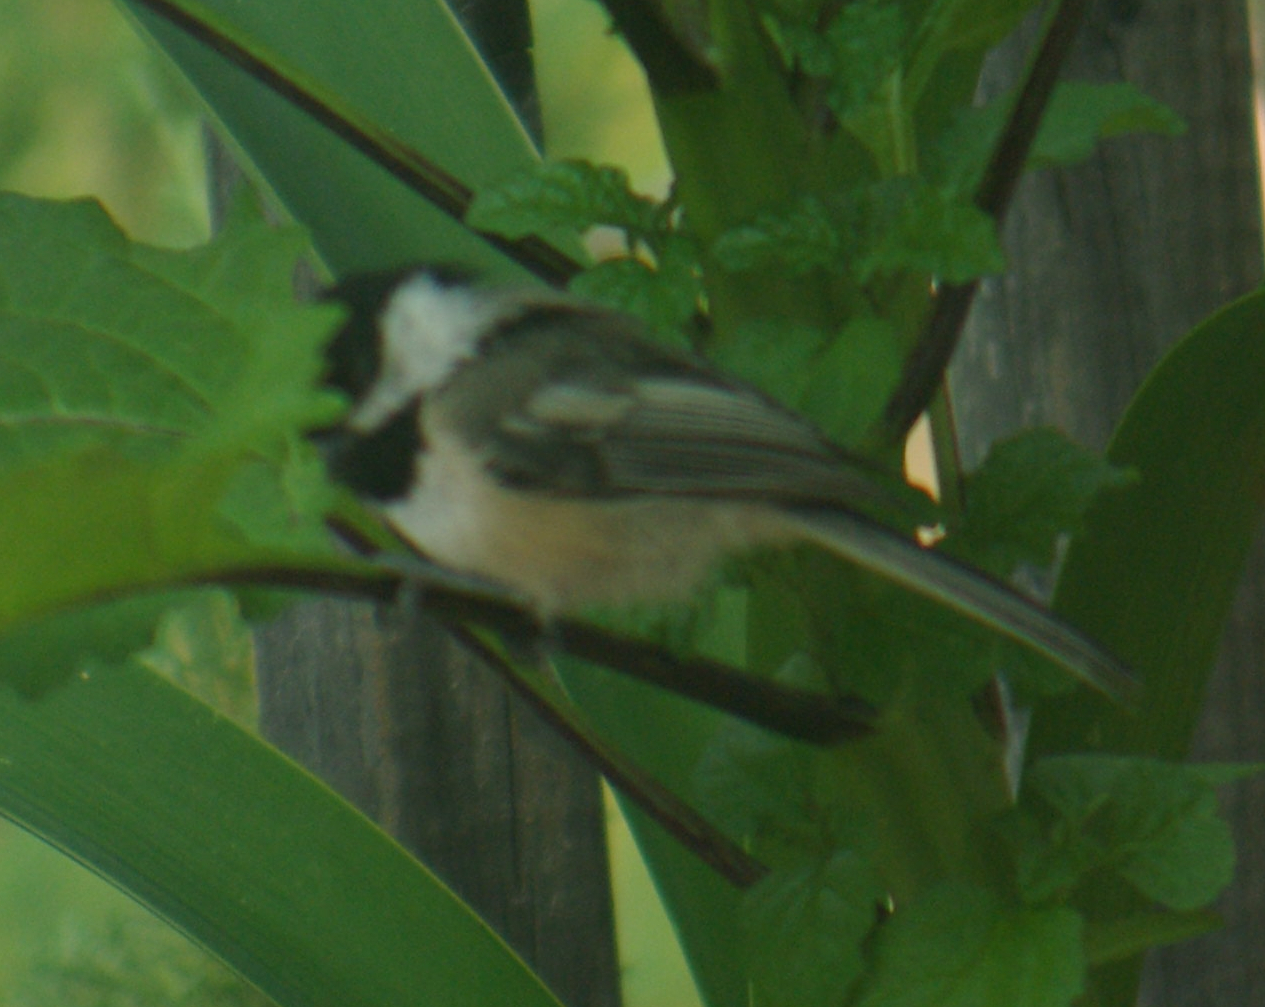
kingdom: Animalia
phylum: Chordata
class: Aves
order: Passeriformes
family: Paridae
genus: Poecile
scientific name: Poecile atricapillus
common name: Black-capped chickadee
